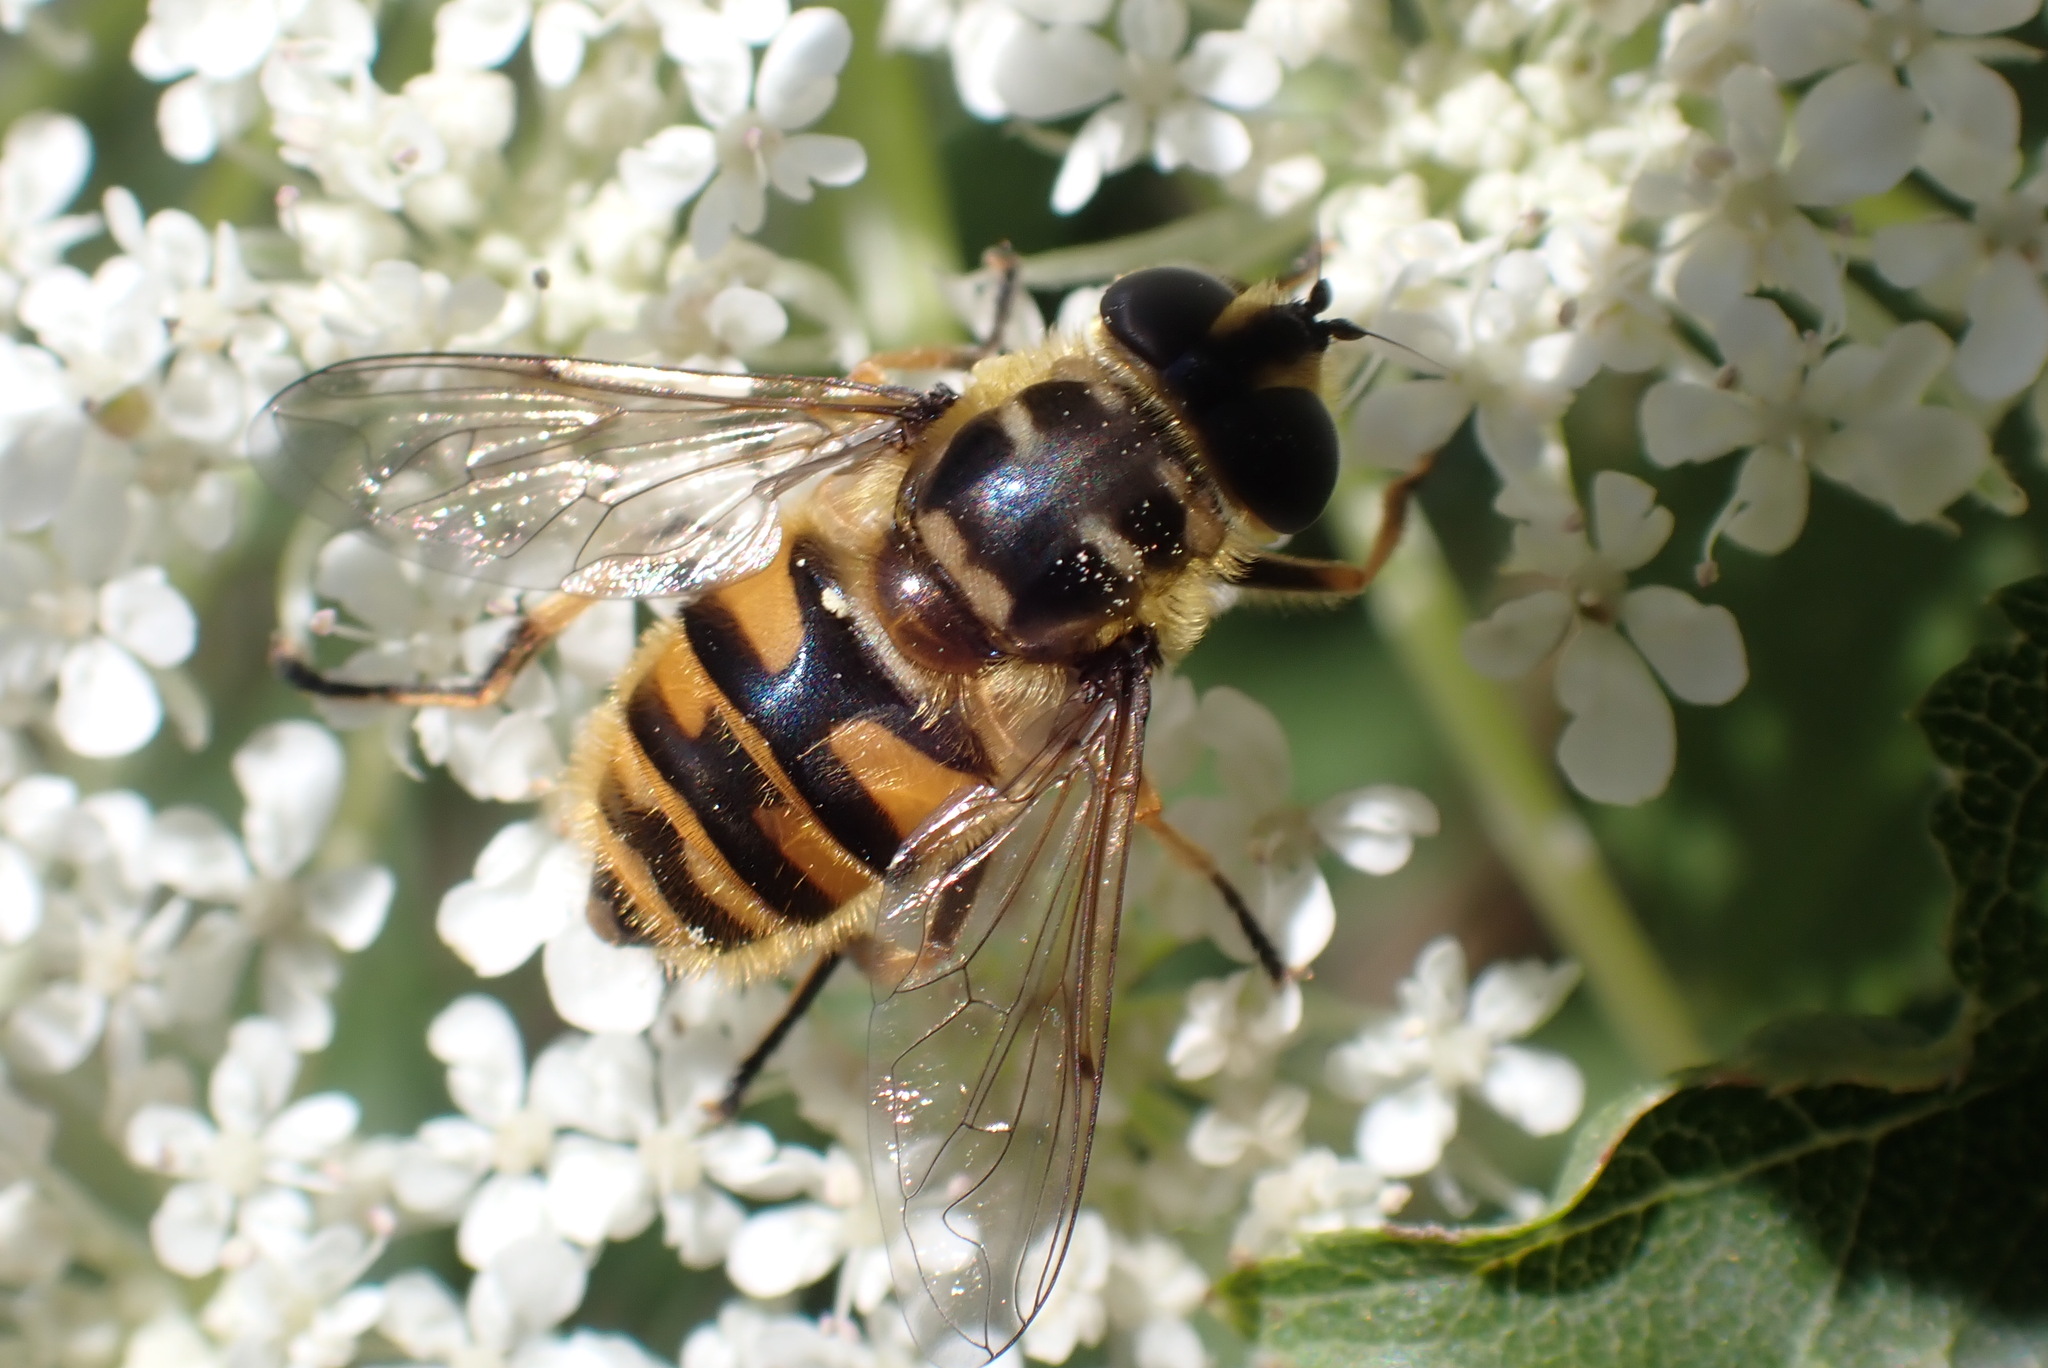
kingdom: Animalia
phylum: Arthropoda
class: Insecta
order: Diptera
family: Syrphidae
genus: Myathropa
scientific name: Myathropa florea
